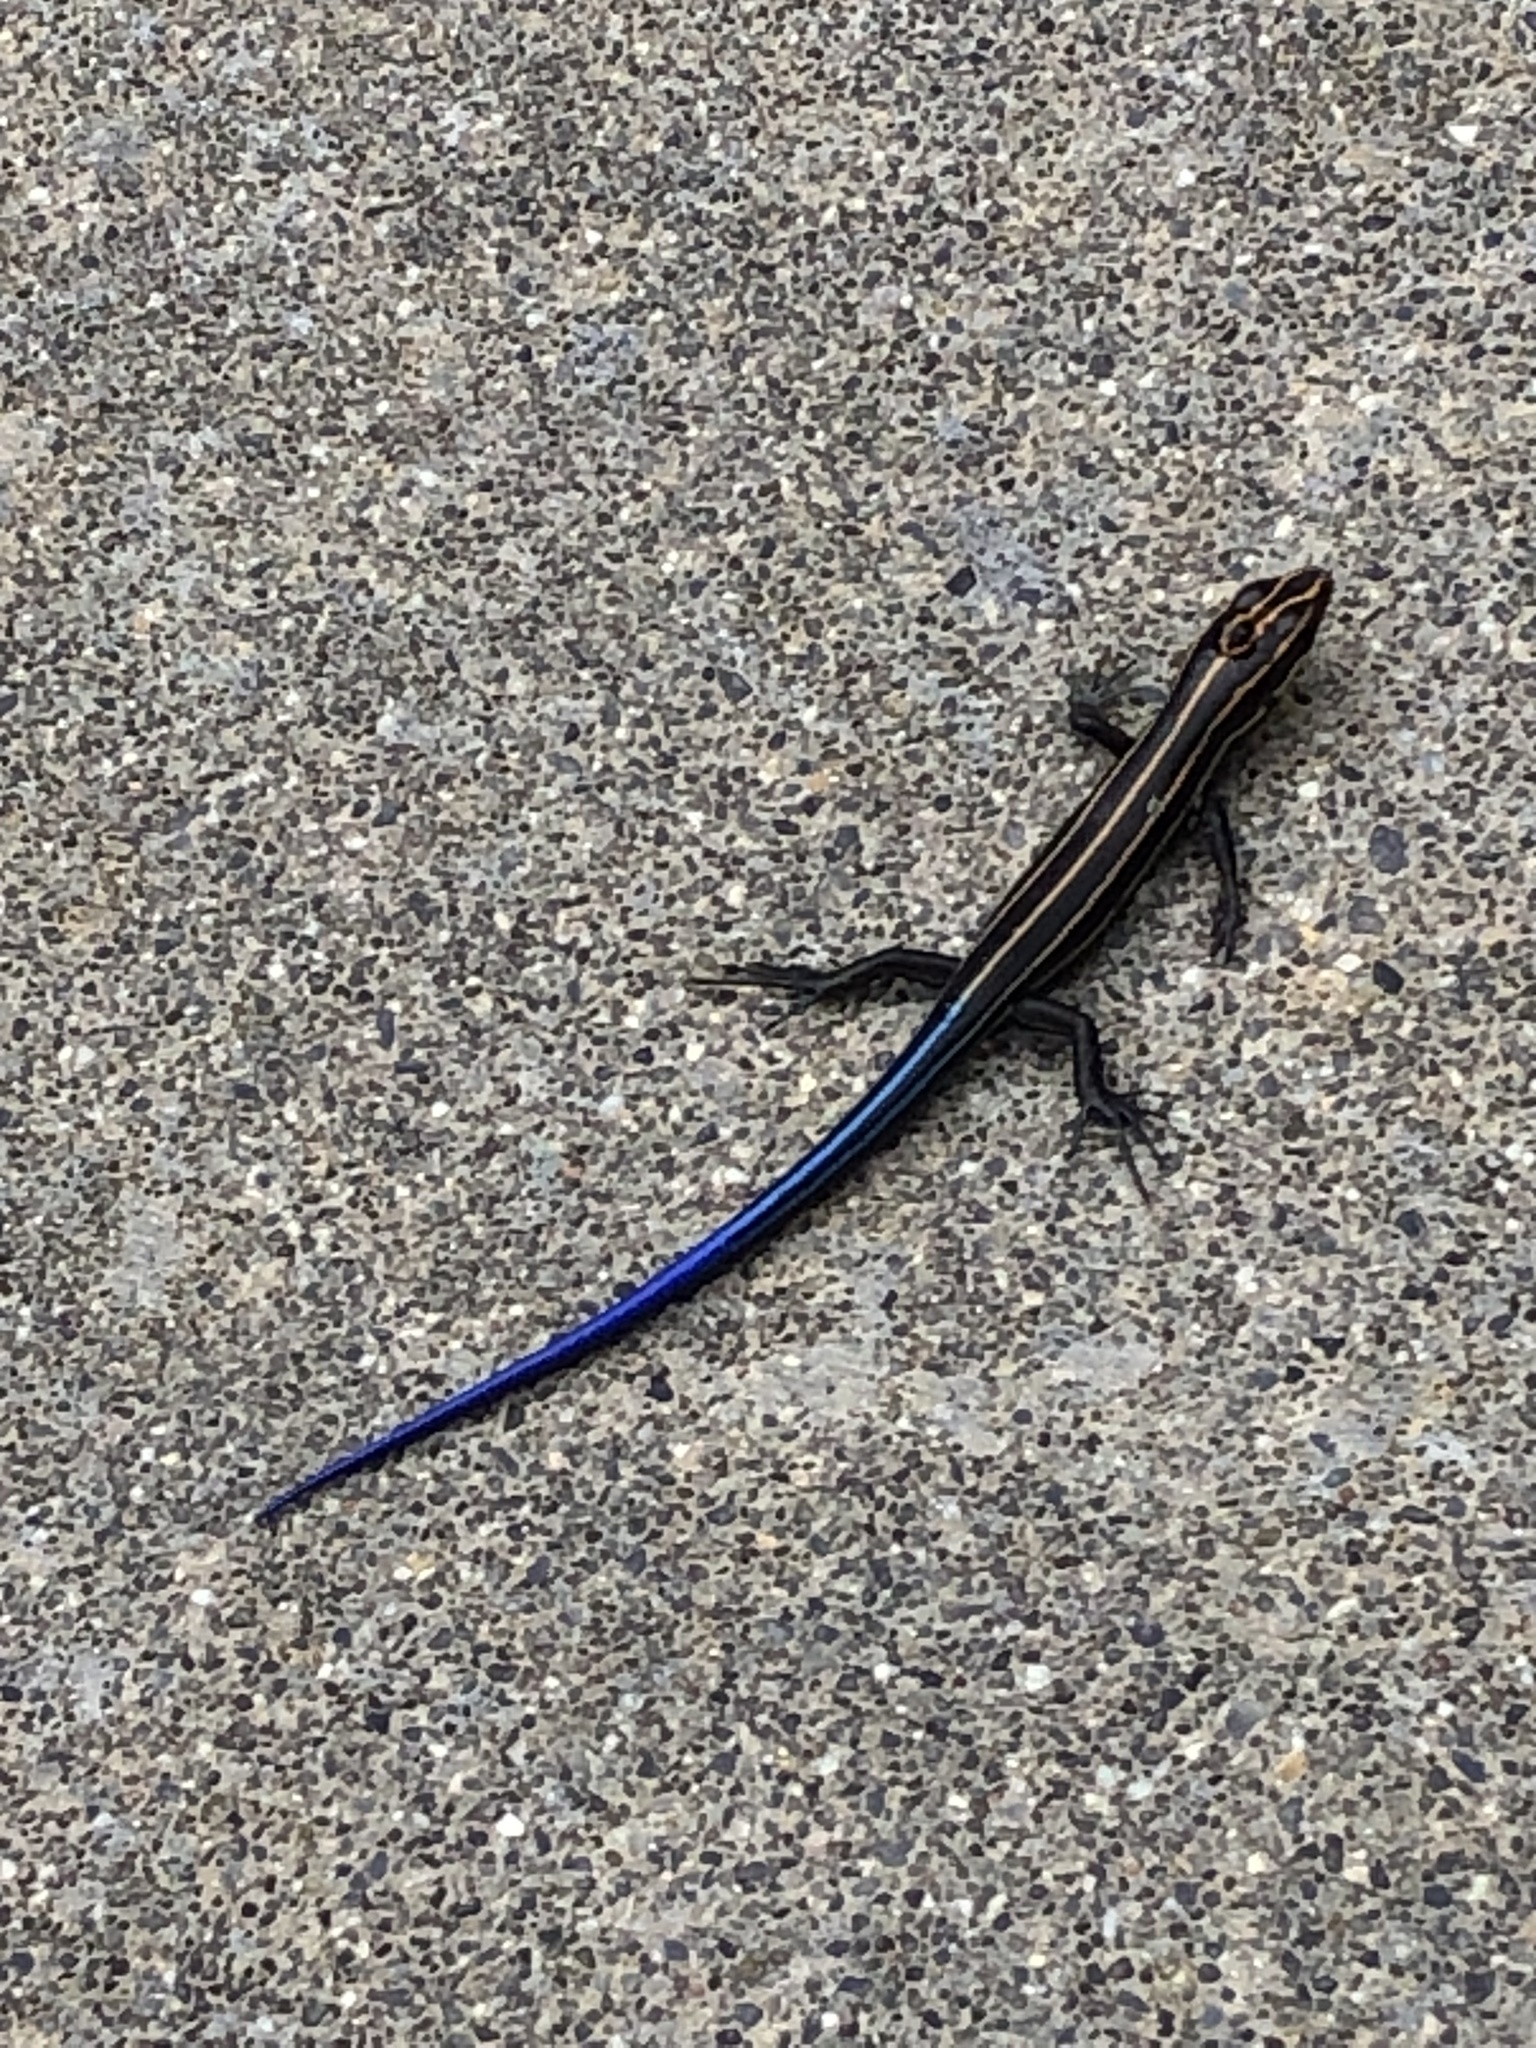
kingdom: Animalia
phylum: Chordata
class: Squamata
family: Scincidae
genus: Plestiodon
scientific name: Plestiodon fasciatus
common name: Five-lined skink
